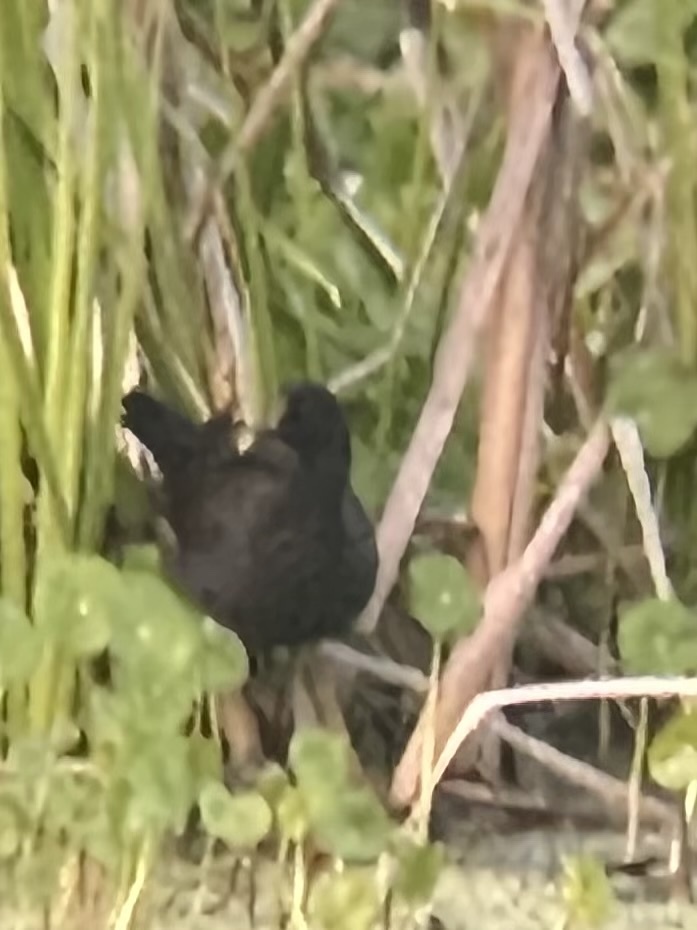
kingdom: Animalia
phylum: Chordata
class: Aves
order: Gruiformes
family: Rallidae
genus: Gallinula
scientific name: Gallinula chloropus
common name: Common moorhen
